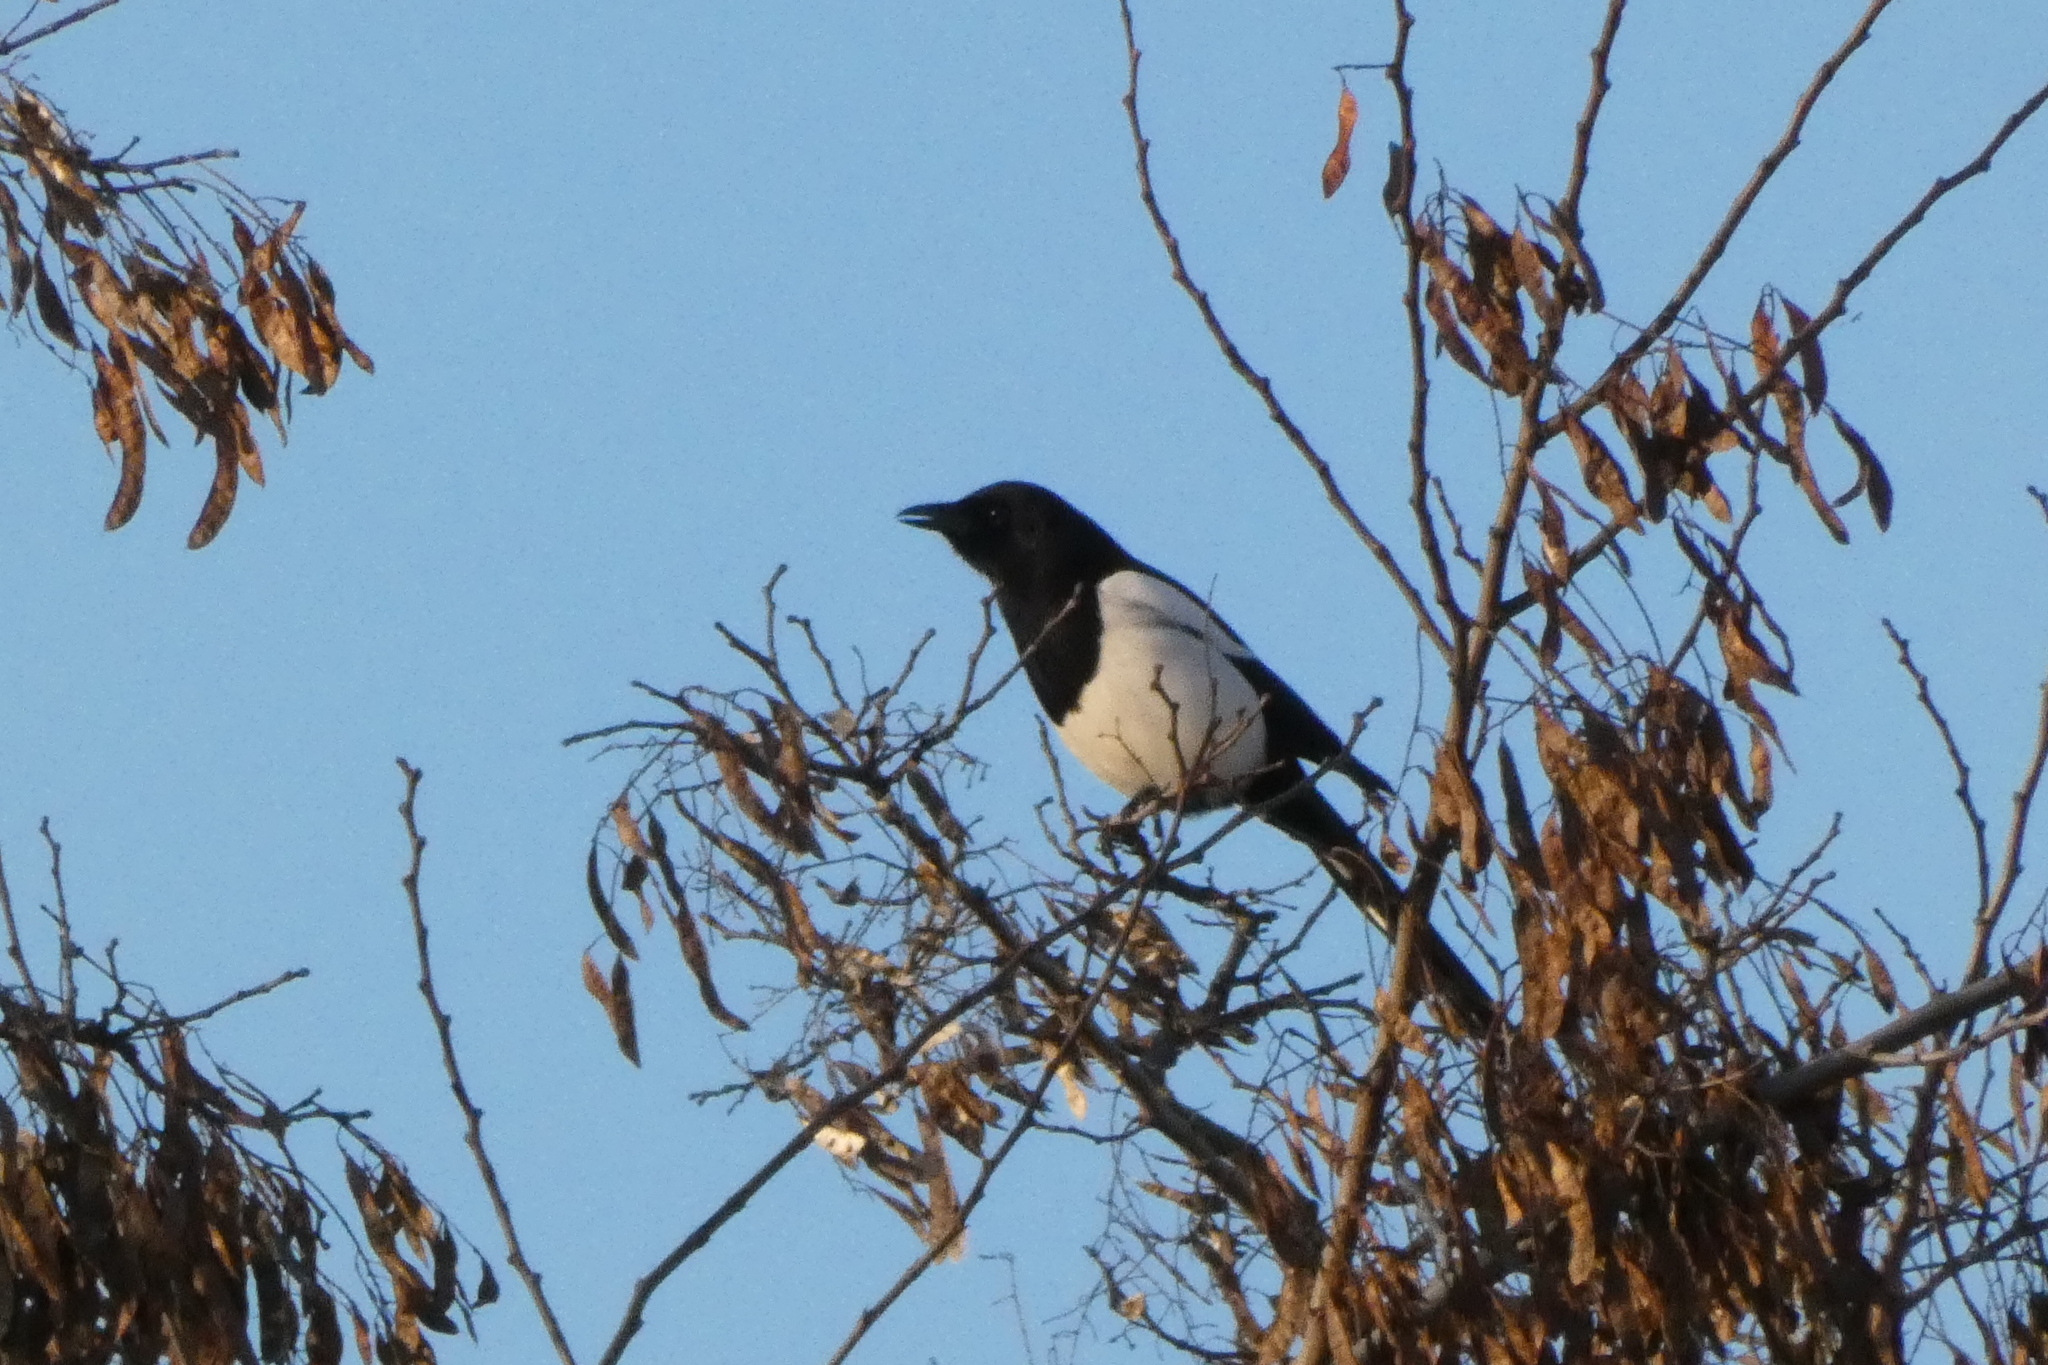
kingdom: Animalia
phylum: Chordata
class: Aves
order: Passeriformes
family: Corvidae
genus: Pica
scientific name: Pica pica
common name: Eurasian magpie
